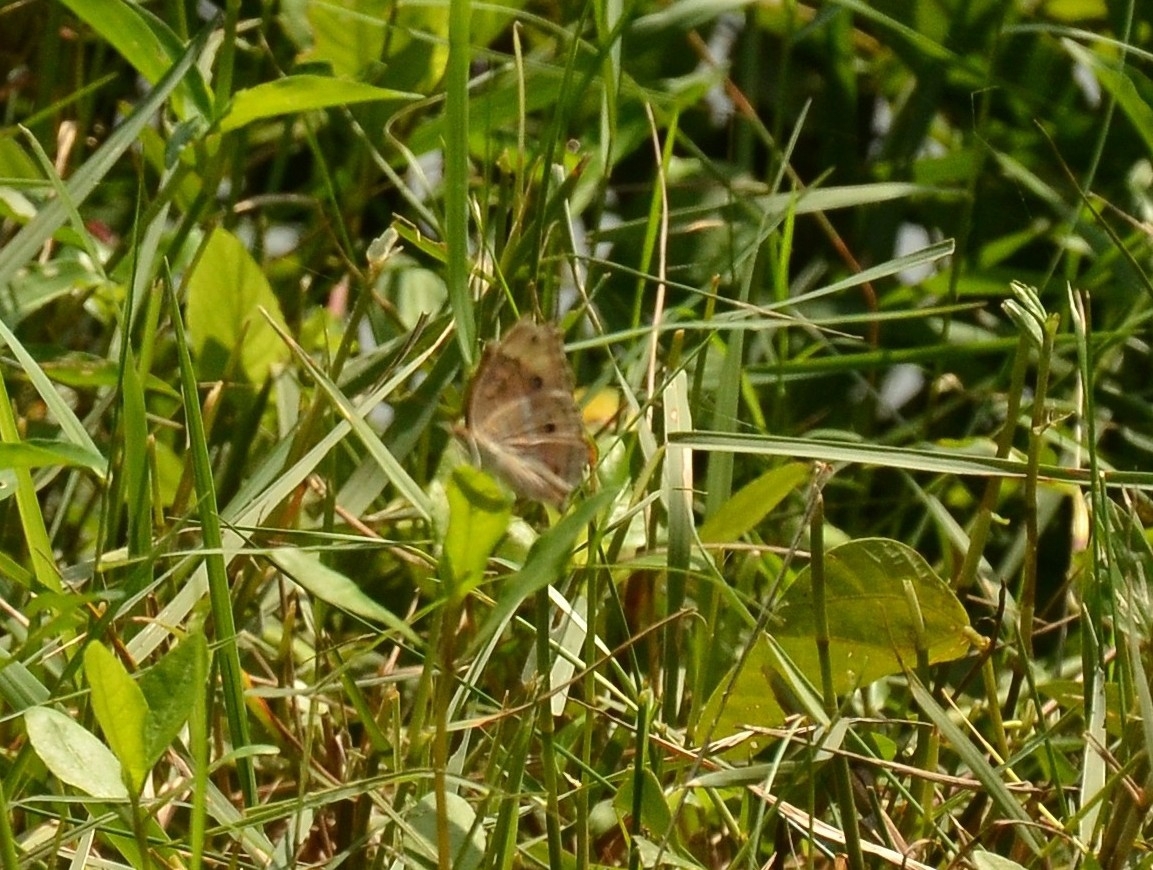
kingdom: Animalia
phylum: Arthropoda
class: Insecta
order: Lepidoptera
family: Nymphalidae
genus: Junonia
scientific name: Junonia almana
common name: Peacock pansy
